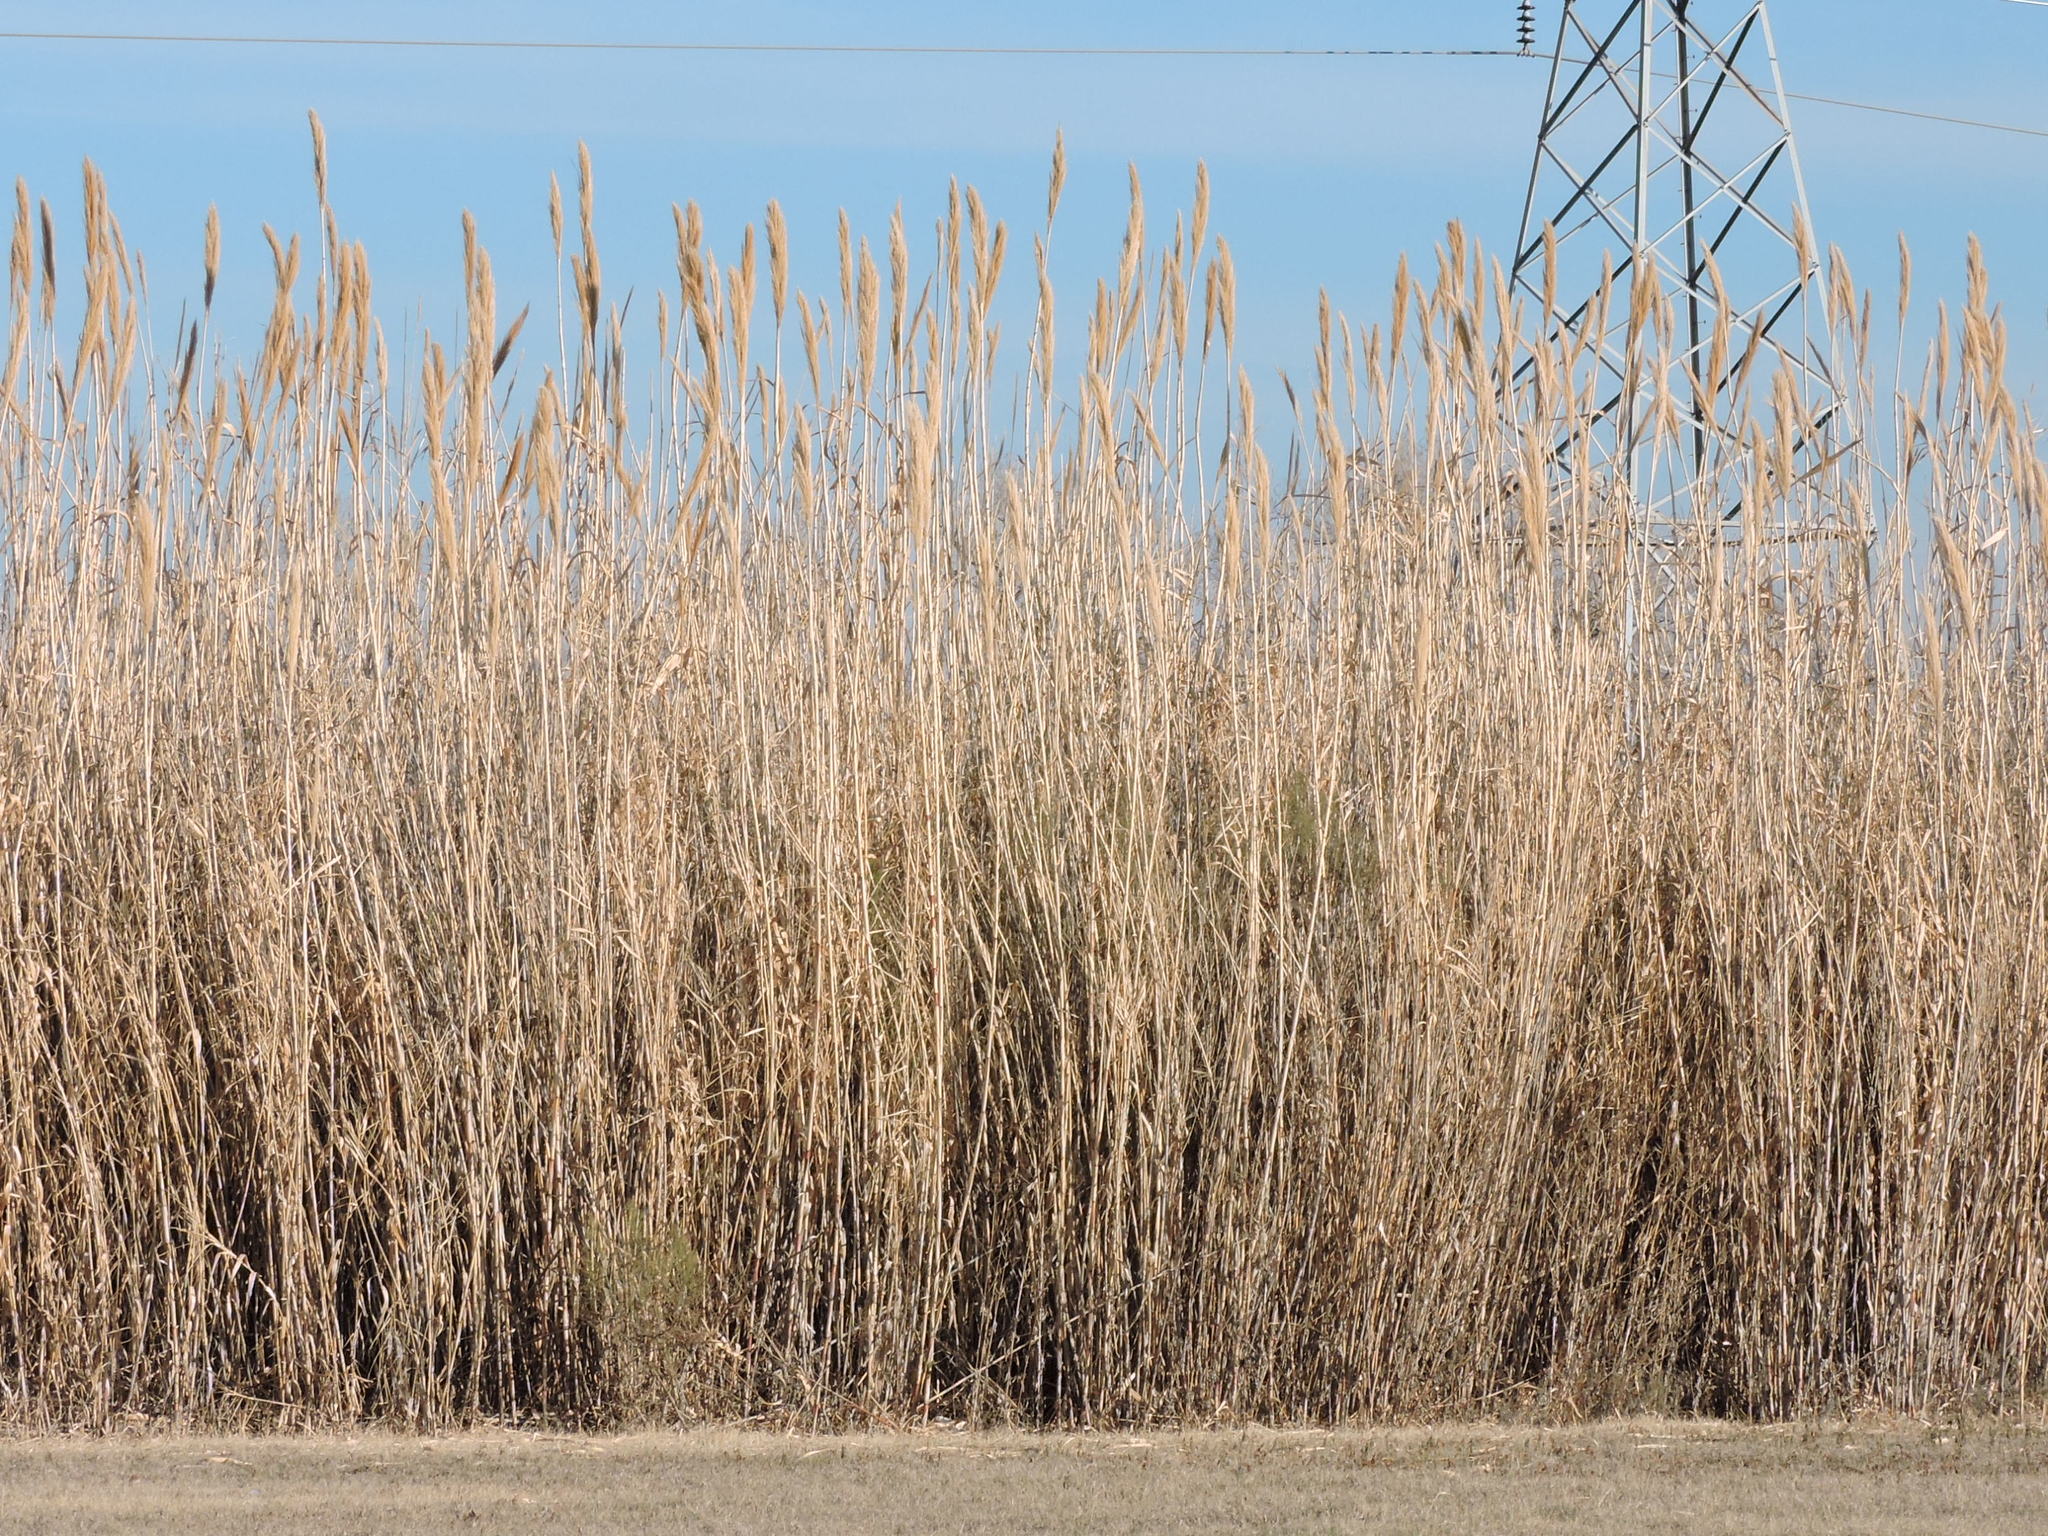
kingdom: Plantae
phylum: Tracheophyta
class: Liliopsida
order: Poales
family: Poaceae
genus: Arundo
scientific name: Arundo donax
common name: Giant reed
